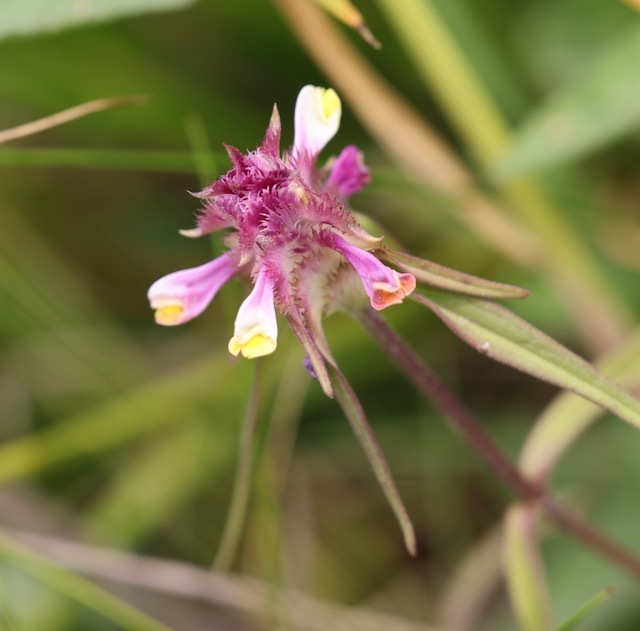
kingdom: Plantae
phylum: Tracheophyta
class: Magnoliopsida
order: Lamiales
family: Orobanchaceae
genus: Melampyrum
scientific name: Melampyrum cristatum
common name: Crested cow-wheat
